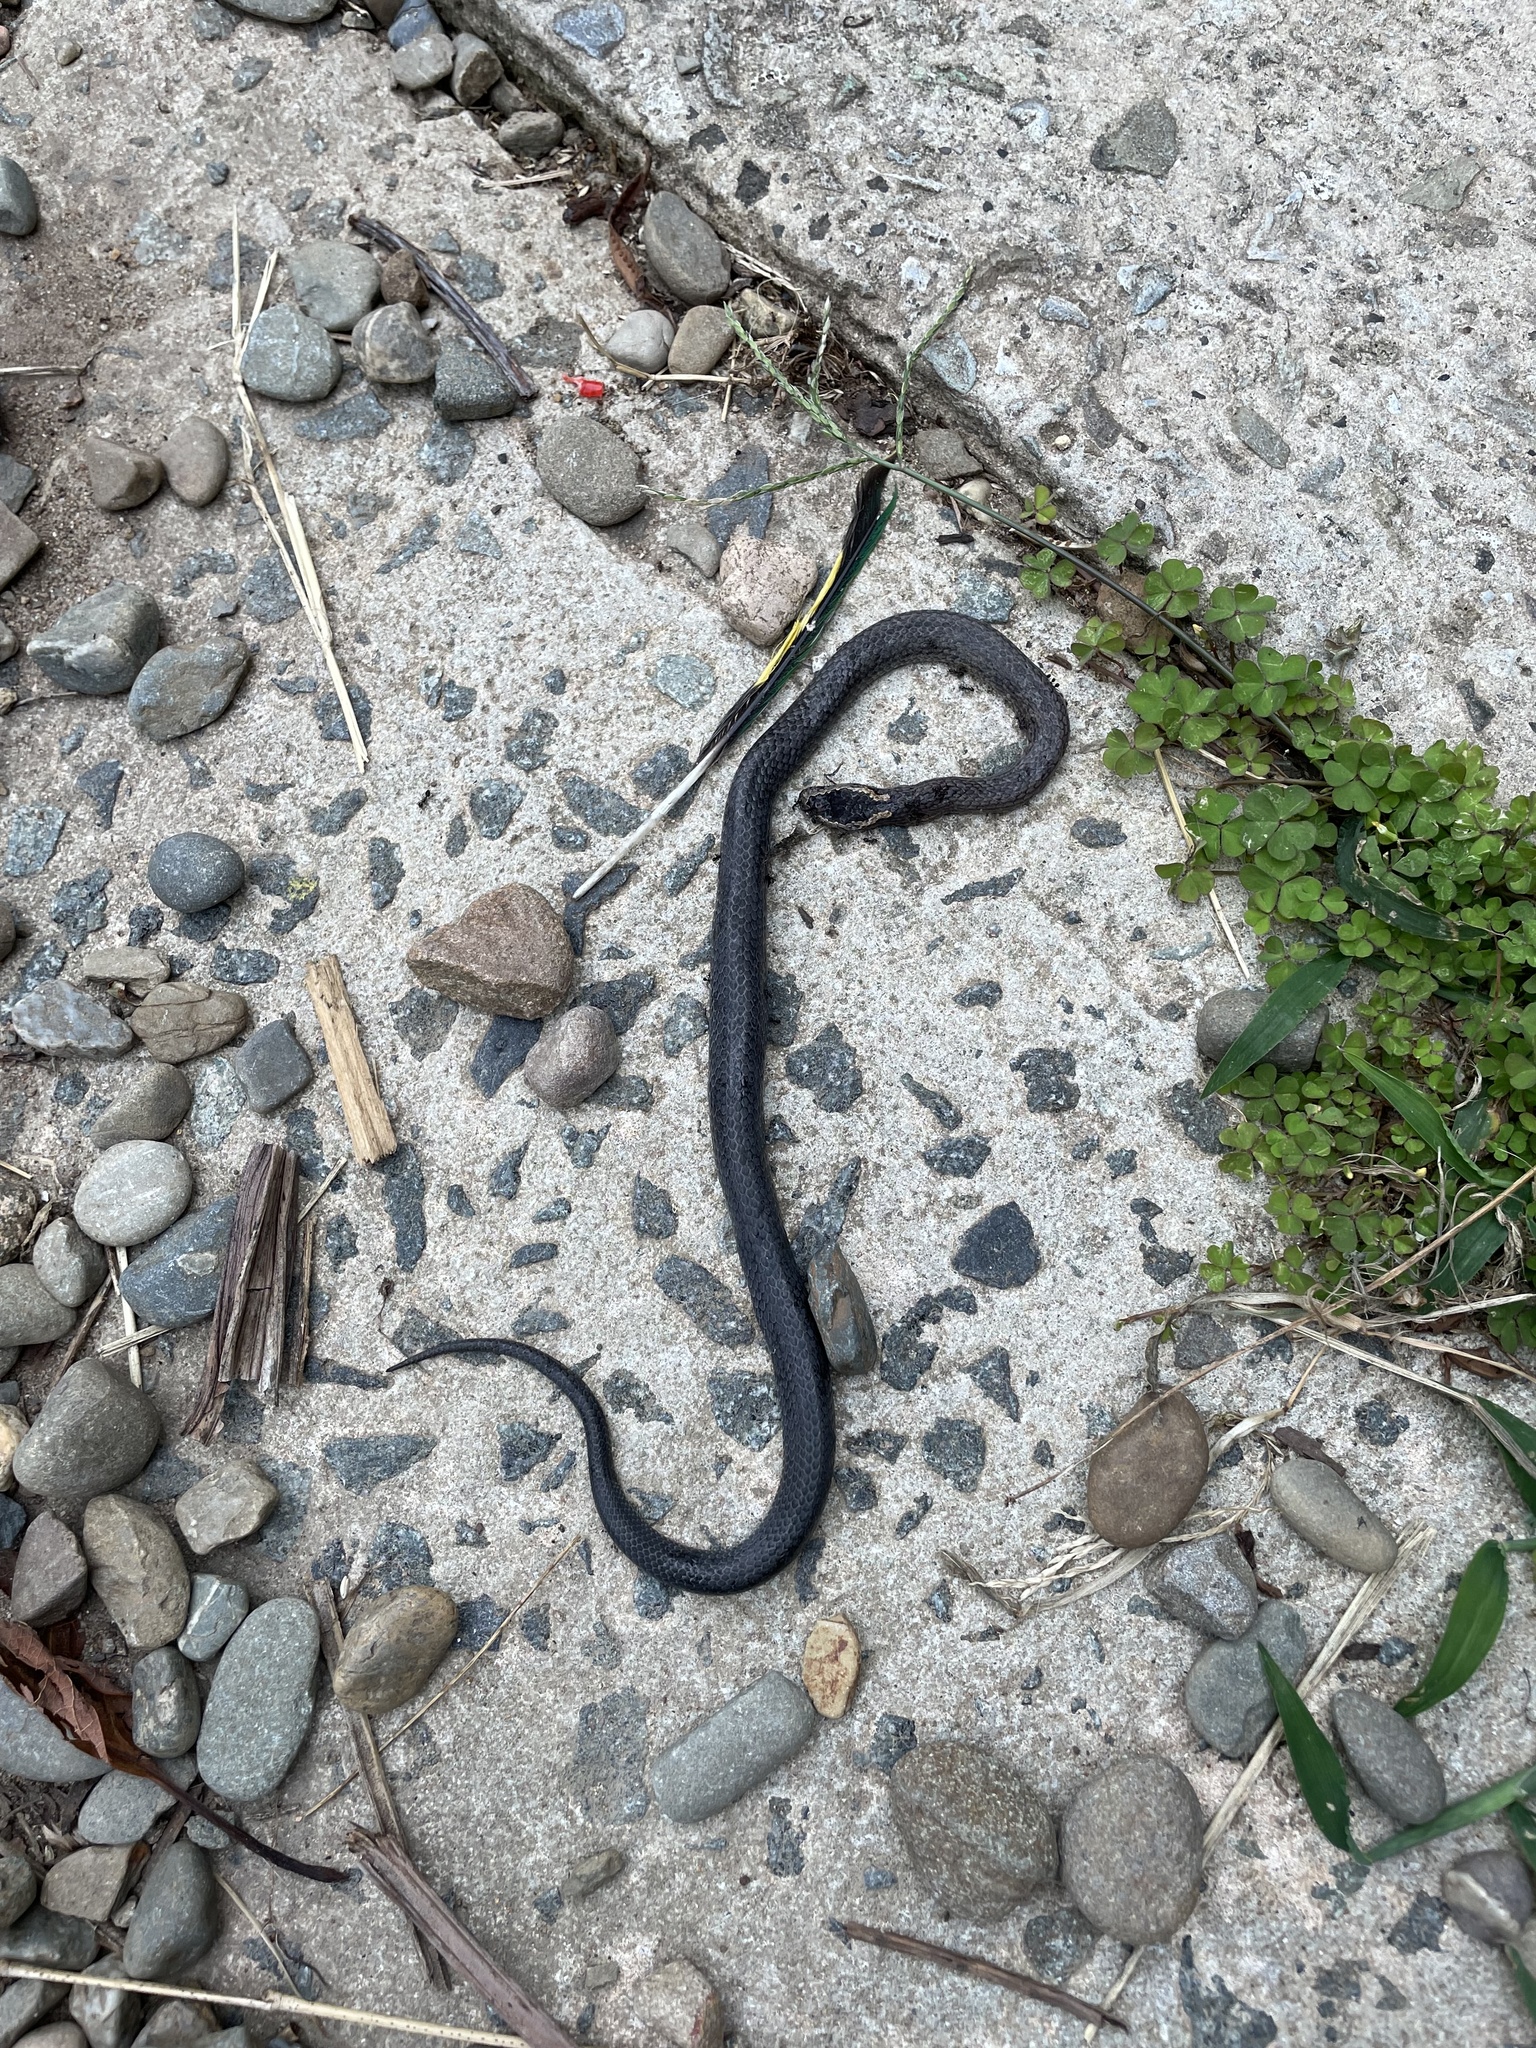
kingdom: Animalia
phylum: Chordata
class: Squamata
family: Elapidae
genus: Cacophis
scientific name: Cacophis squamulosus
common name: Golden crowned snake
